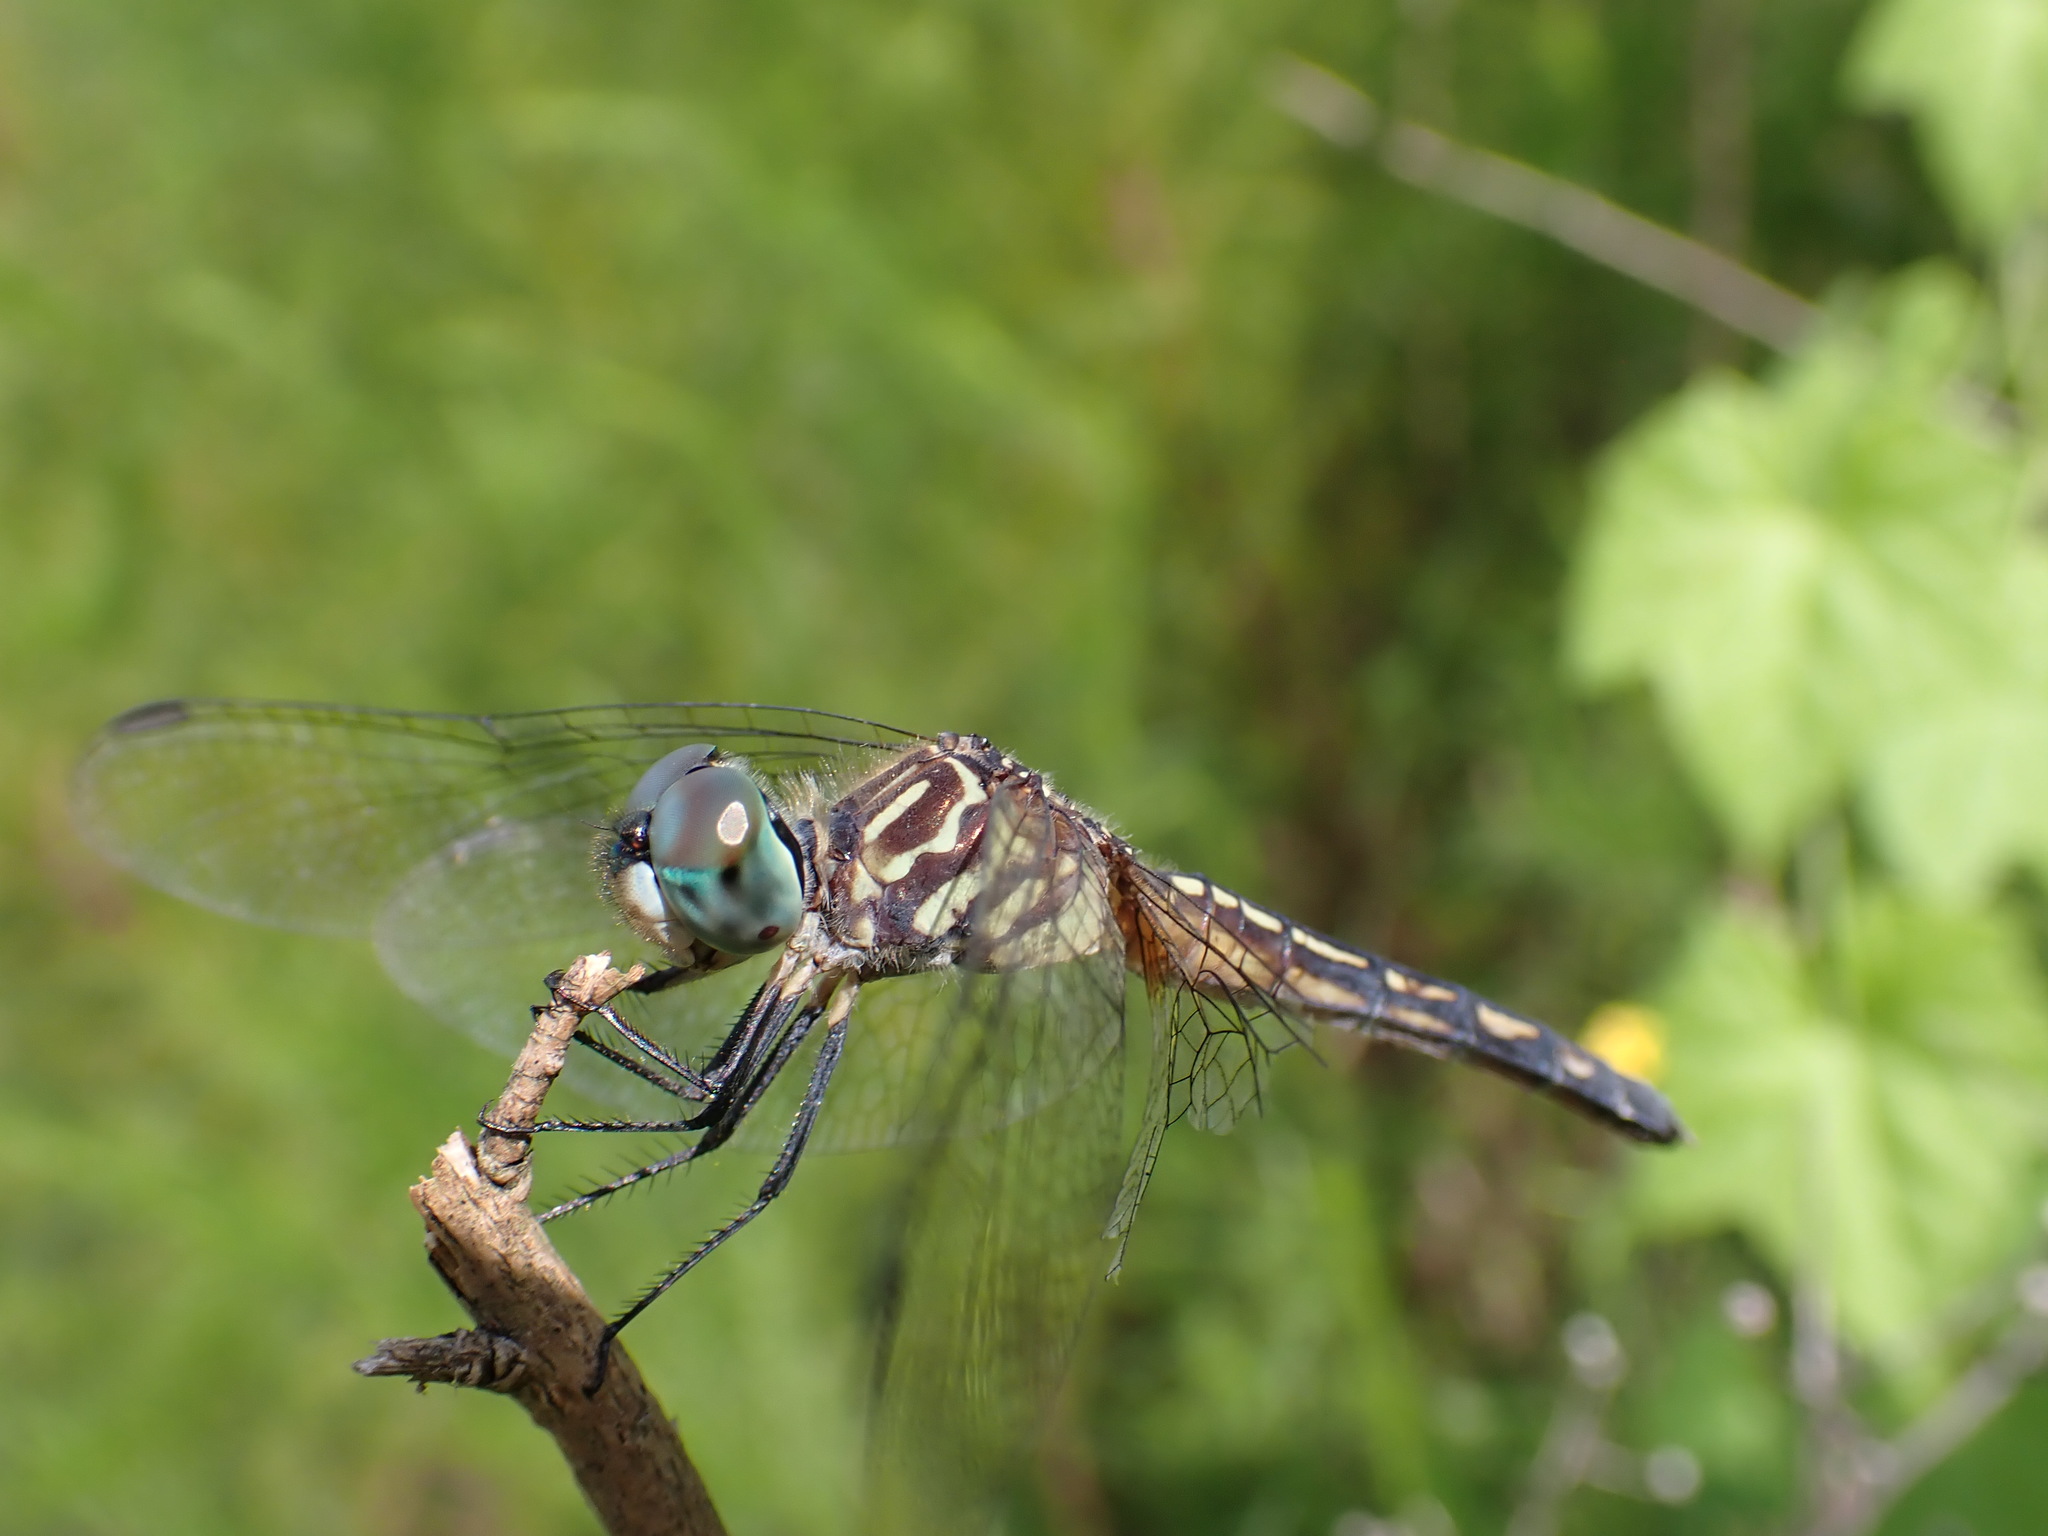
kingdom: Animalia
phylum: Arthropoda
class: Insecta
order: Odonata
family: Libellulidae
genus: Pachydiplax
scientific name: Pachydiplax longipennis
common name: Blue dasher
